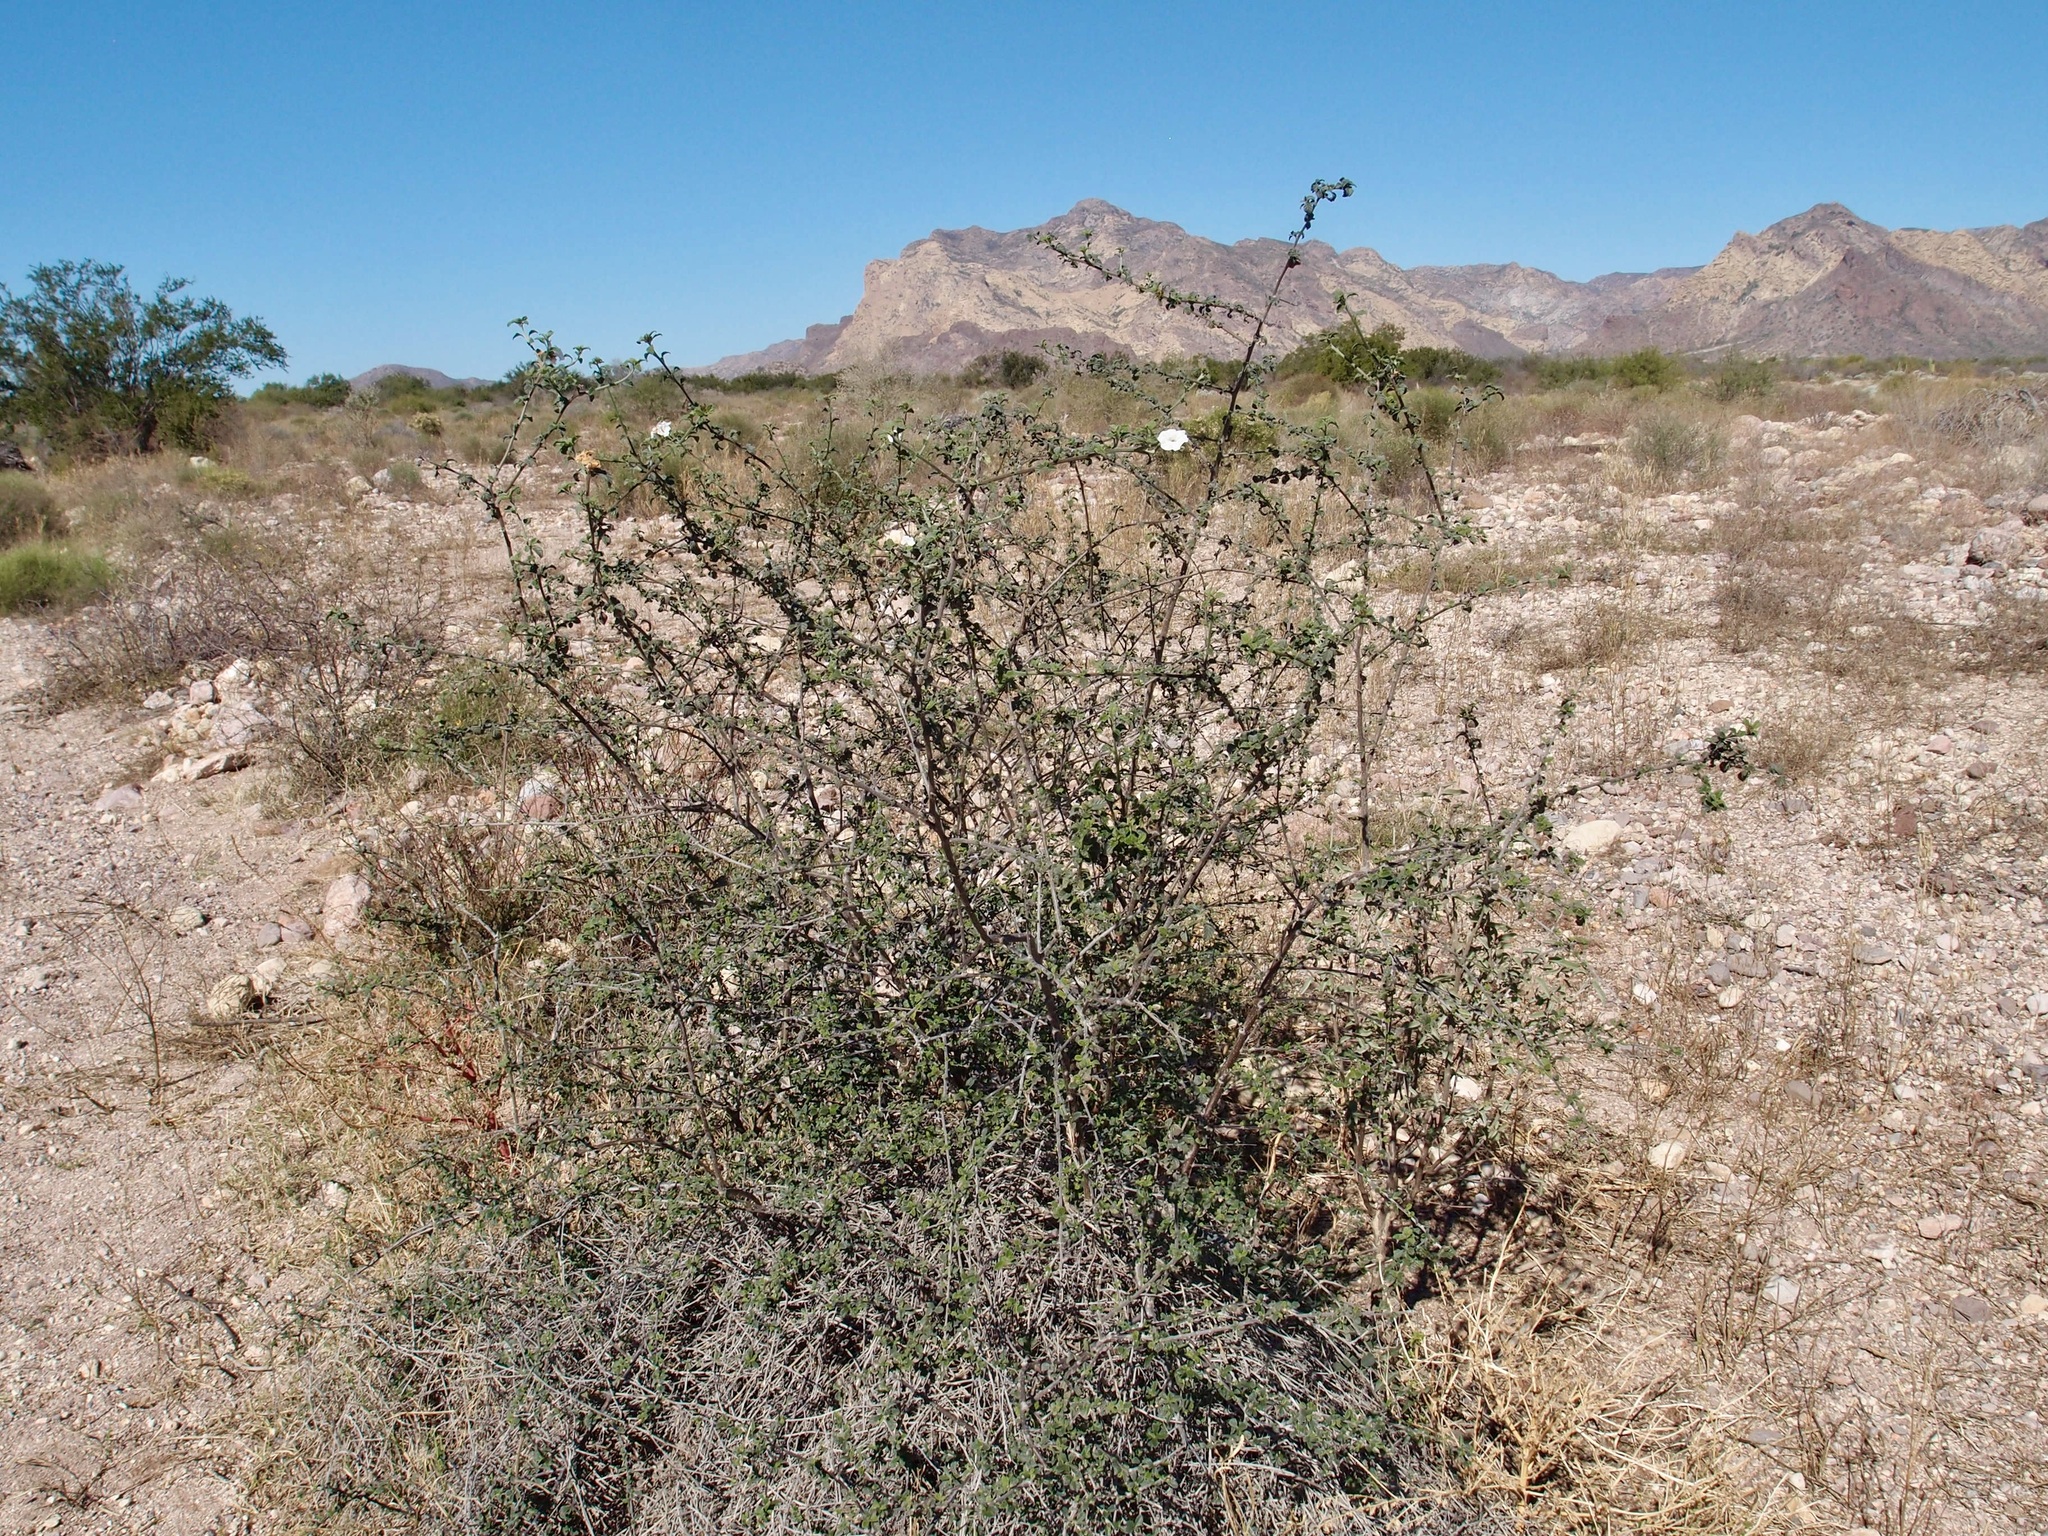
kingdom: Plantae
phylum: Tracheophyta
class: Magnoliopsida
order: Boraginales
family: Cordiaceae
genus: Cordia
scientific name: Cordia parvifolia
